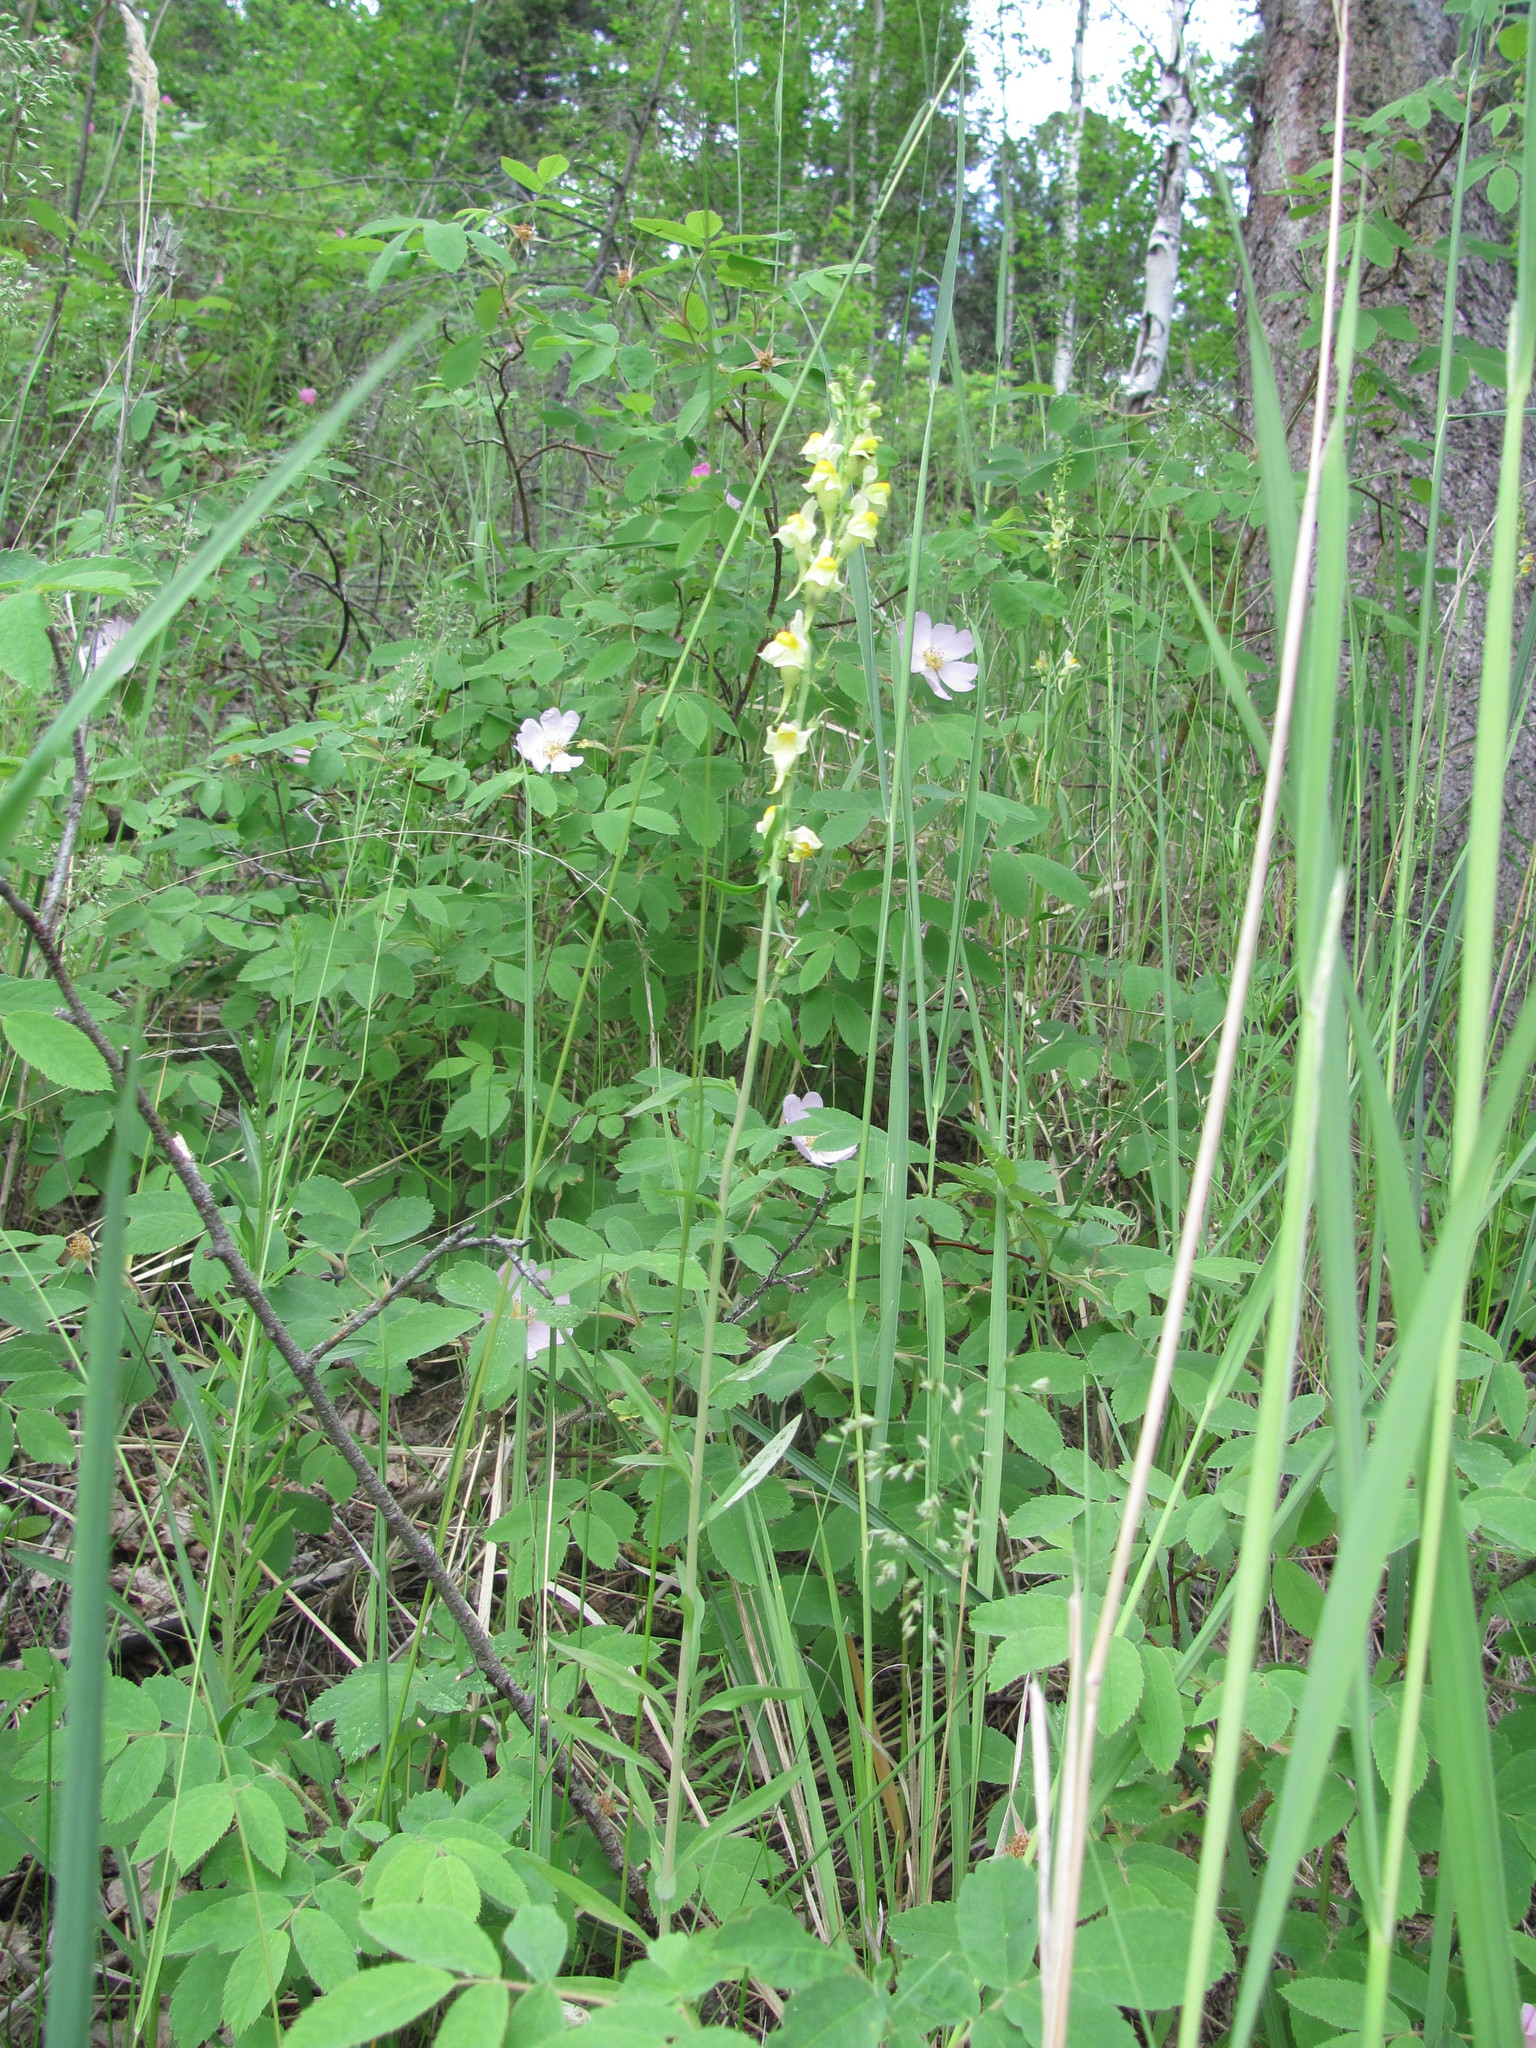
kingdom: Plantae
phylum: Tracheophyta
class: Magnoliopsida
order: Lamiales
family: Plantaginaceae
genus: Linaria
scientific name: Linaria vulgaris
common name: Butter and eggs
